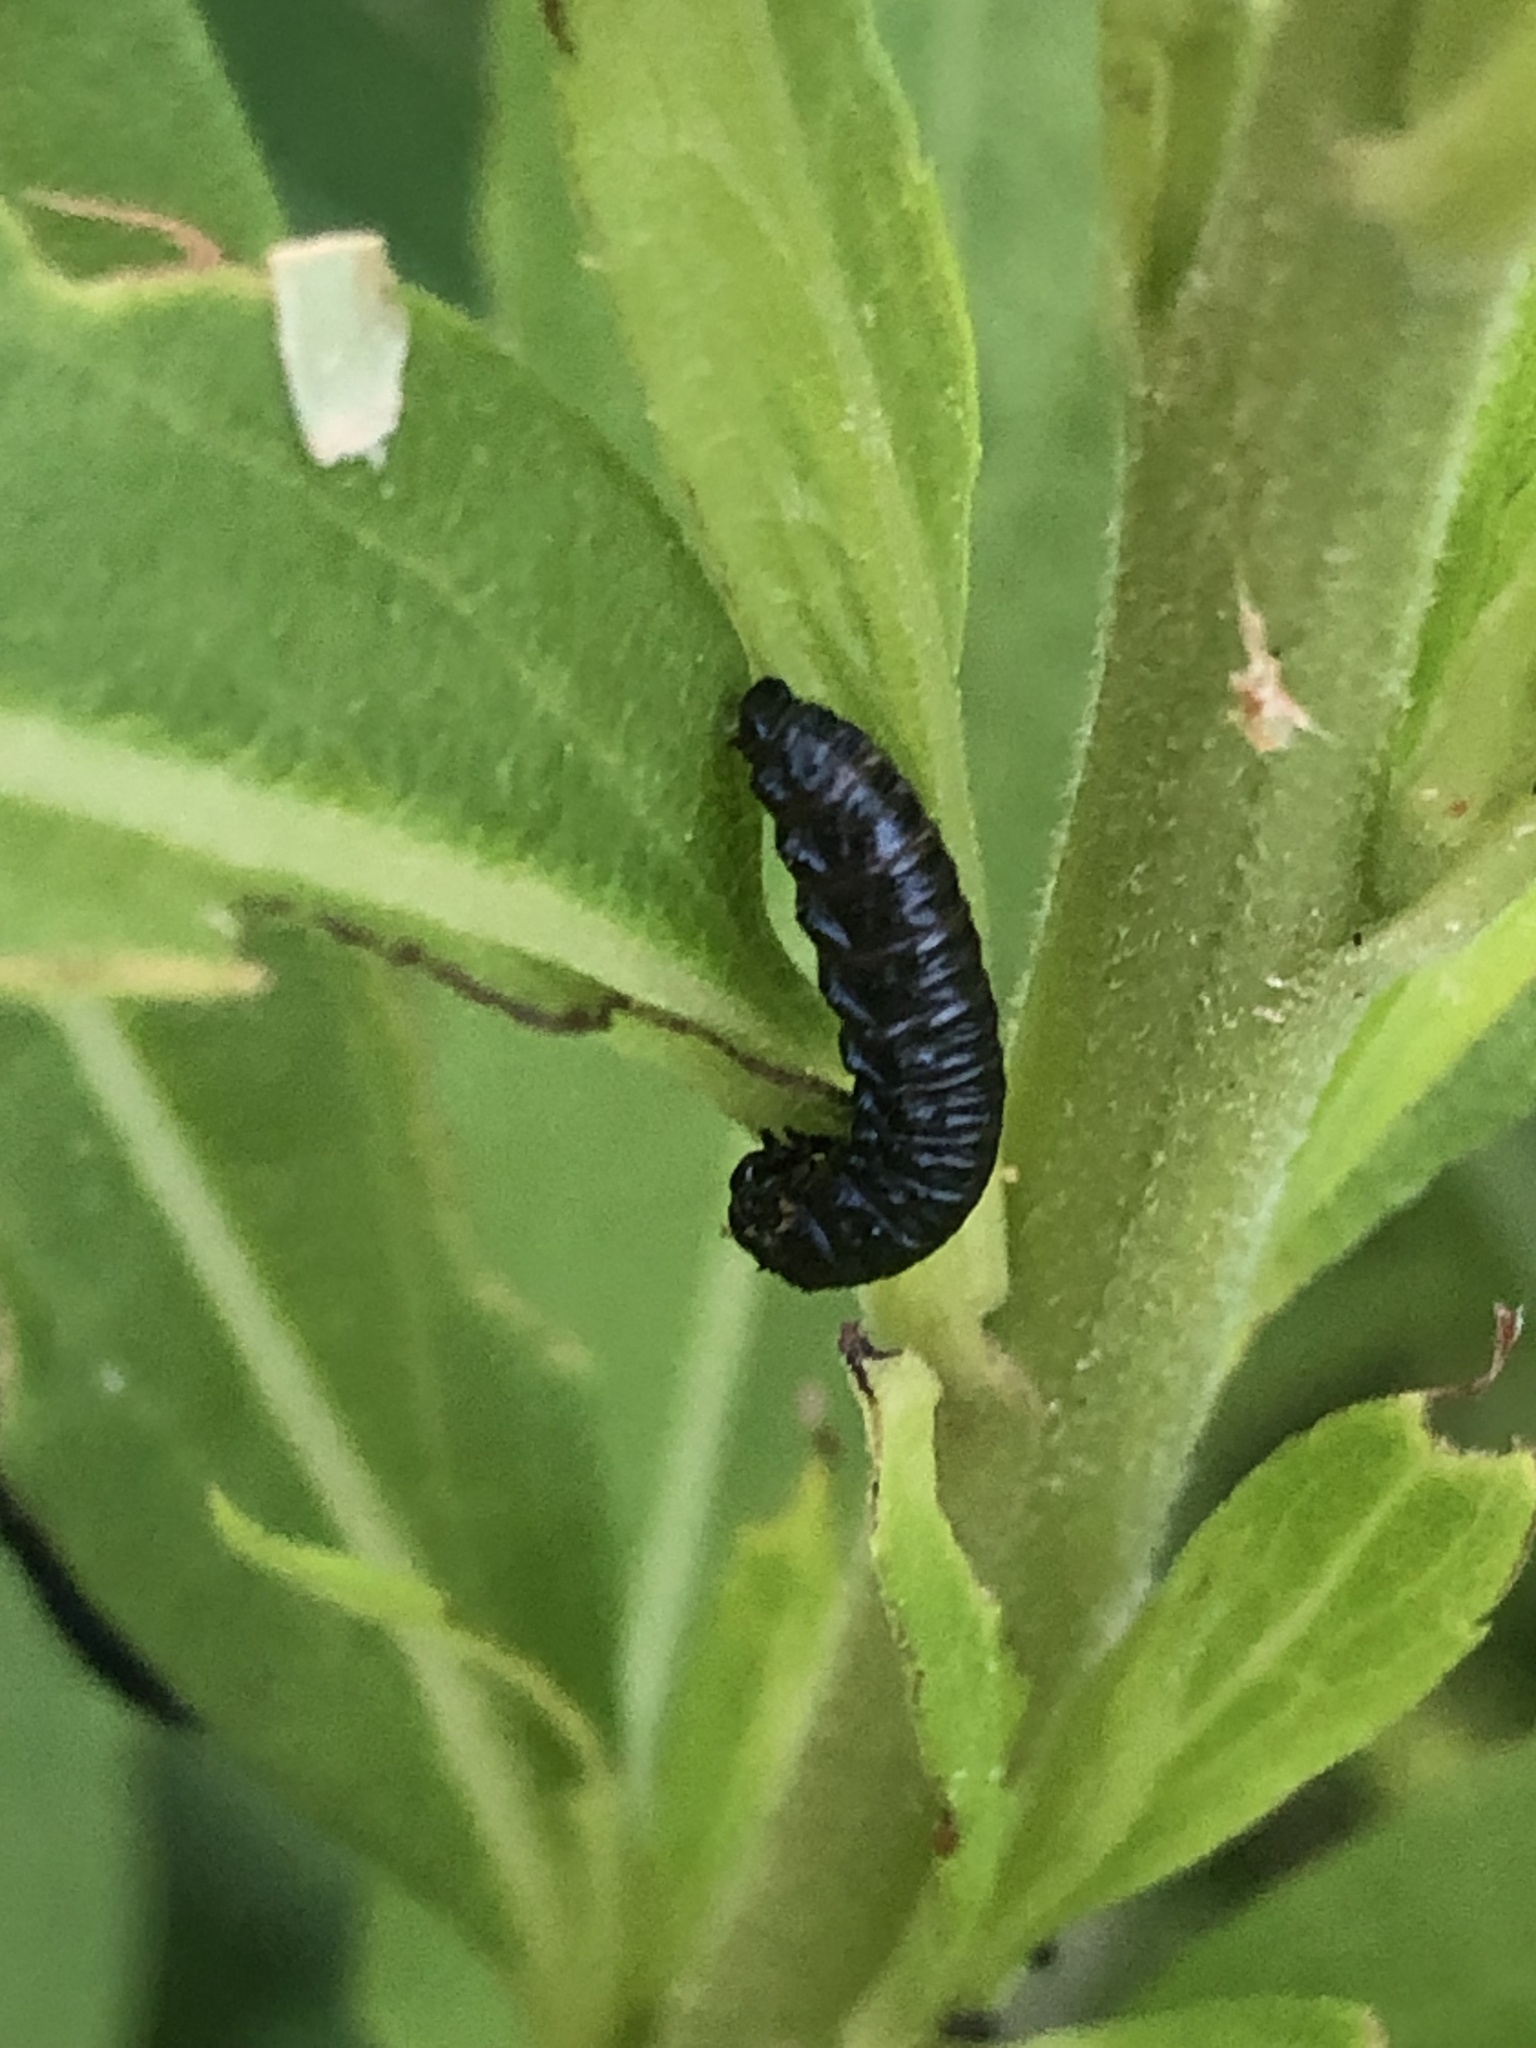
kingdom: Animalia
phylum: Arthropoda
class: Insecta
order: Coleoptera
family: Chrysomelidae
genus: Trirhabda
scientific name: Trirhabda canadensis
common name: Goldenrod leaf beetle
